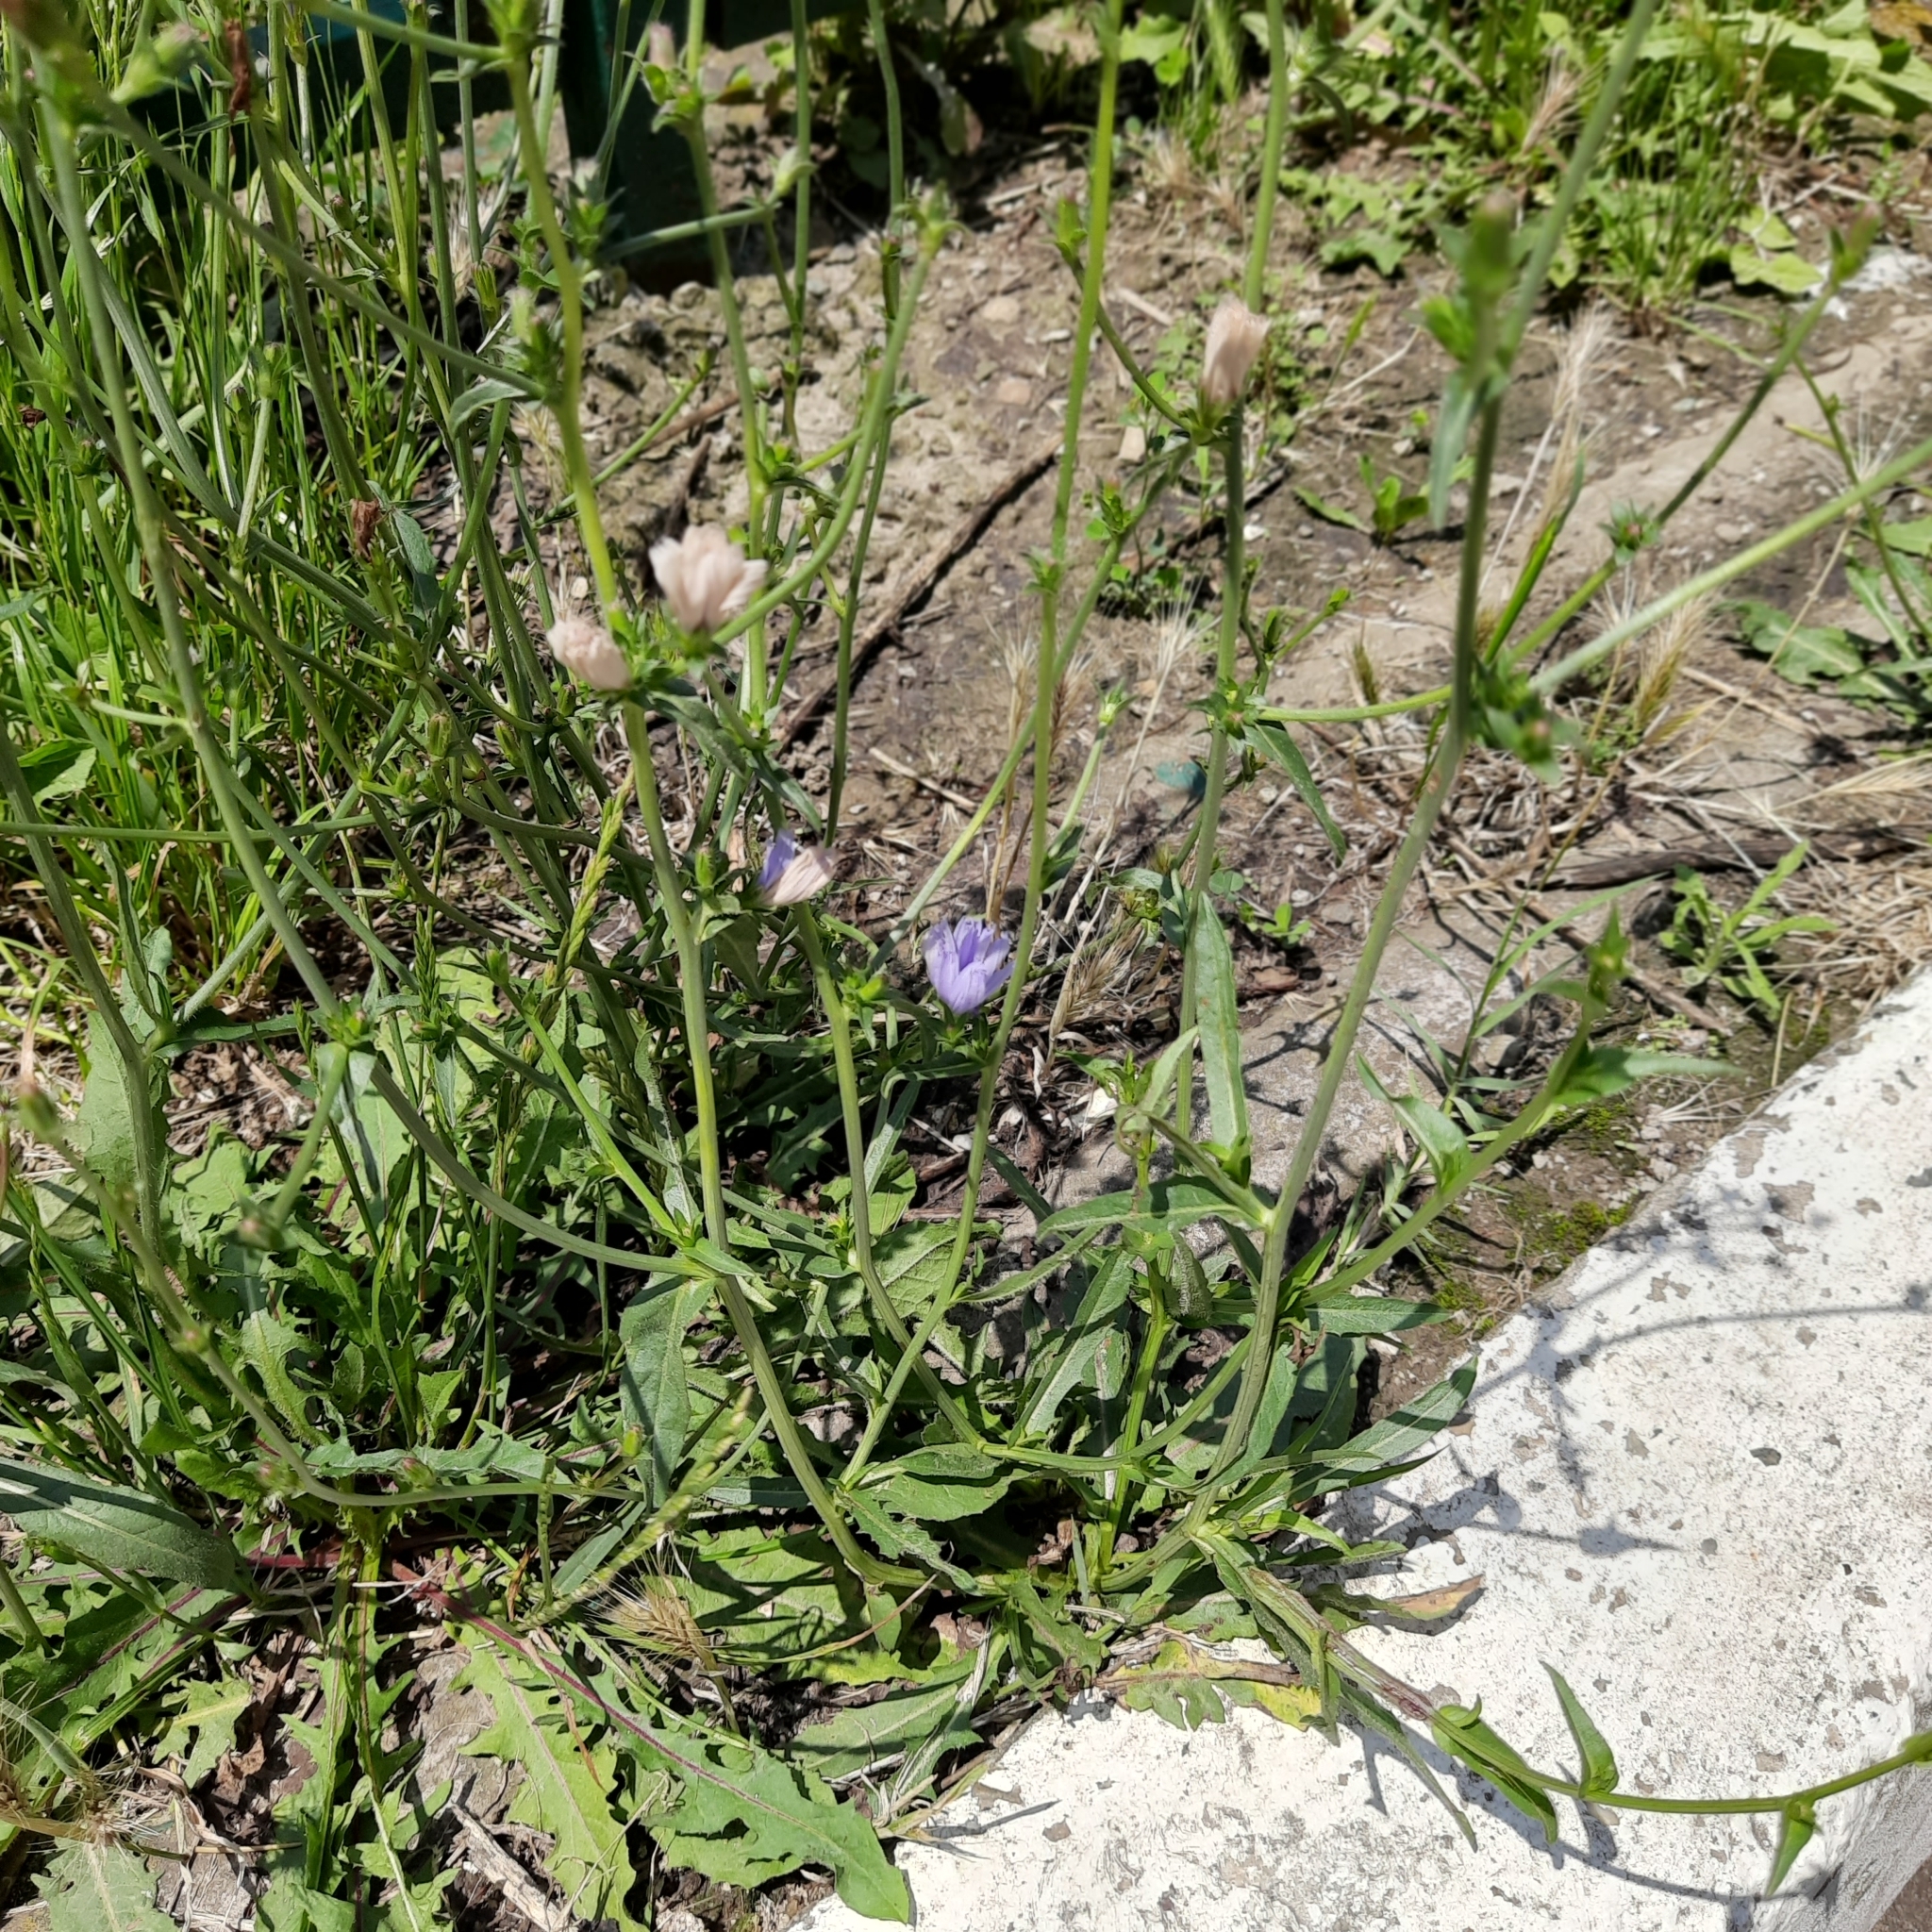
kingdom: Plantae
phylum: Tracheophyta
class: Magnoliopsida
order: Asterales
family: Asteraceae
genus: Cichorium
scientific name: Cichorium intybus
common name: Chicory
